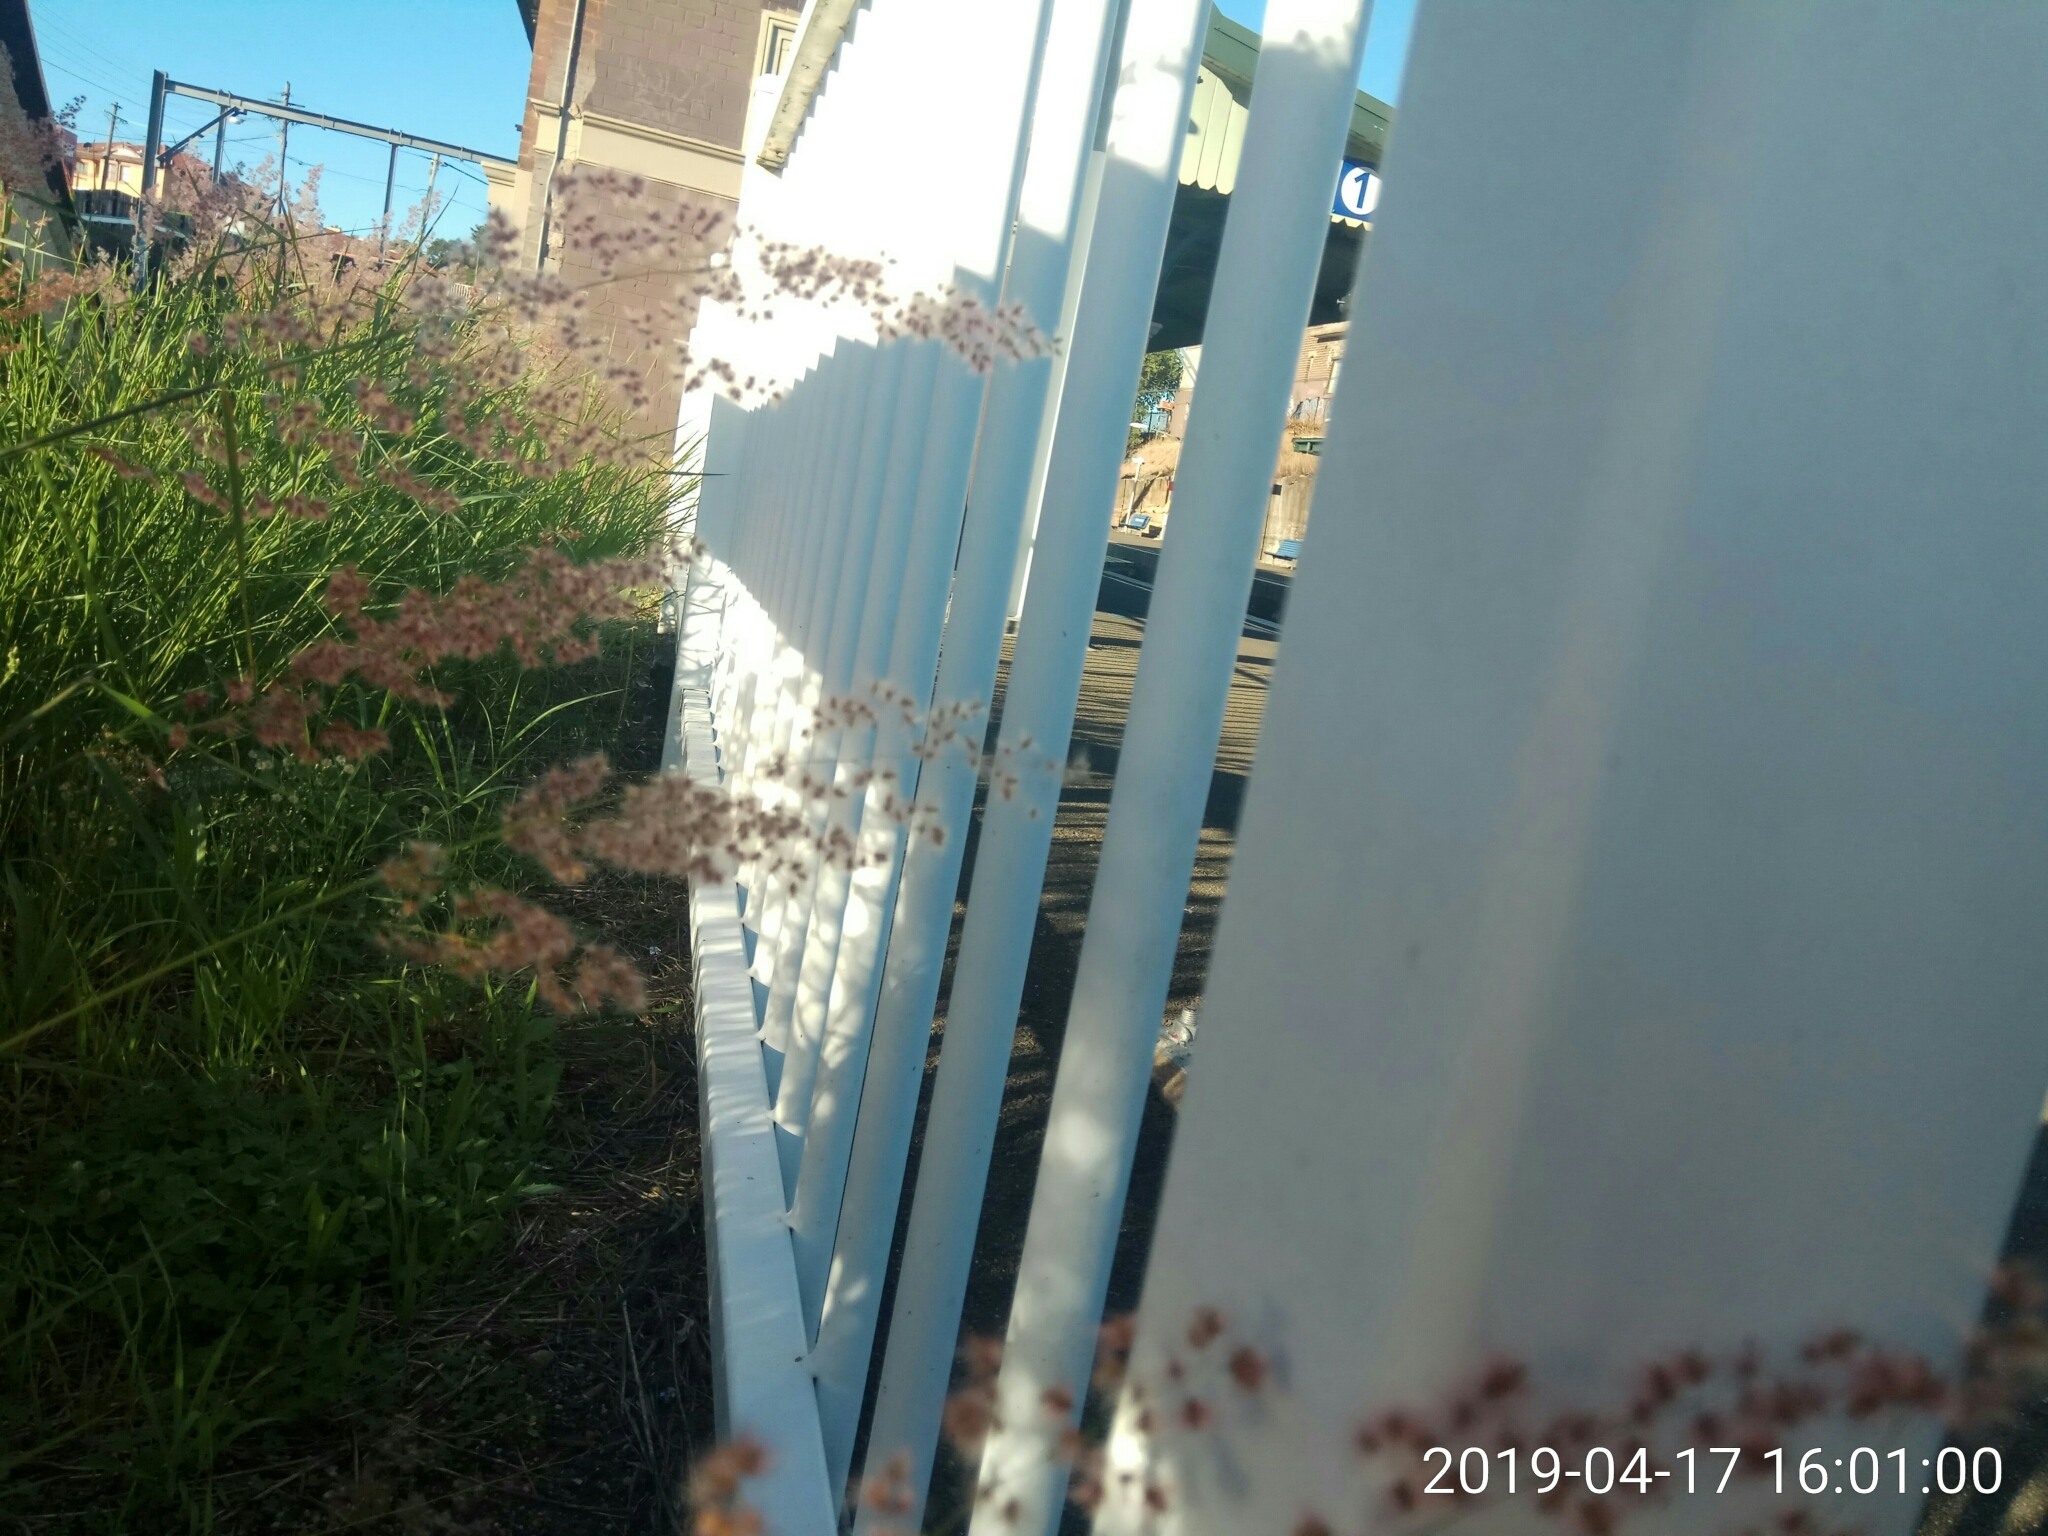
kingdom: Plantae
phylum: Tracheophyta
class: Liliopsida
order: Poales
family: Poaceae
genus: Melinis
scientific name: Melinis repens
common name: Rose natal grass
